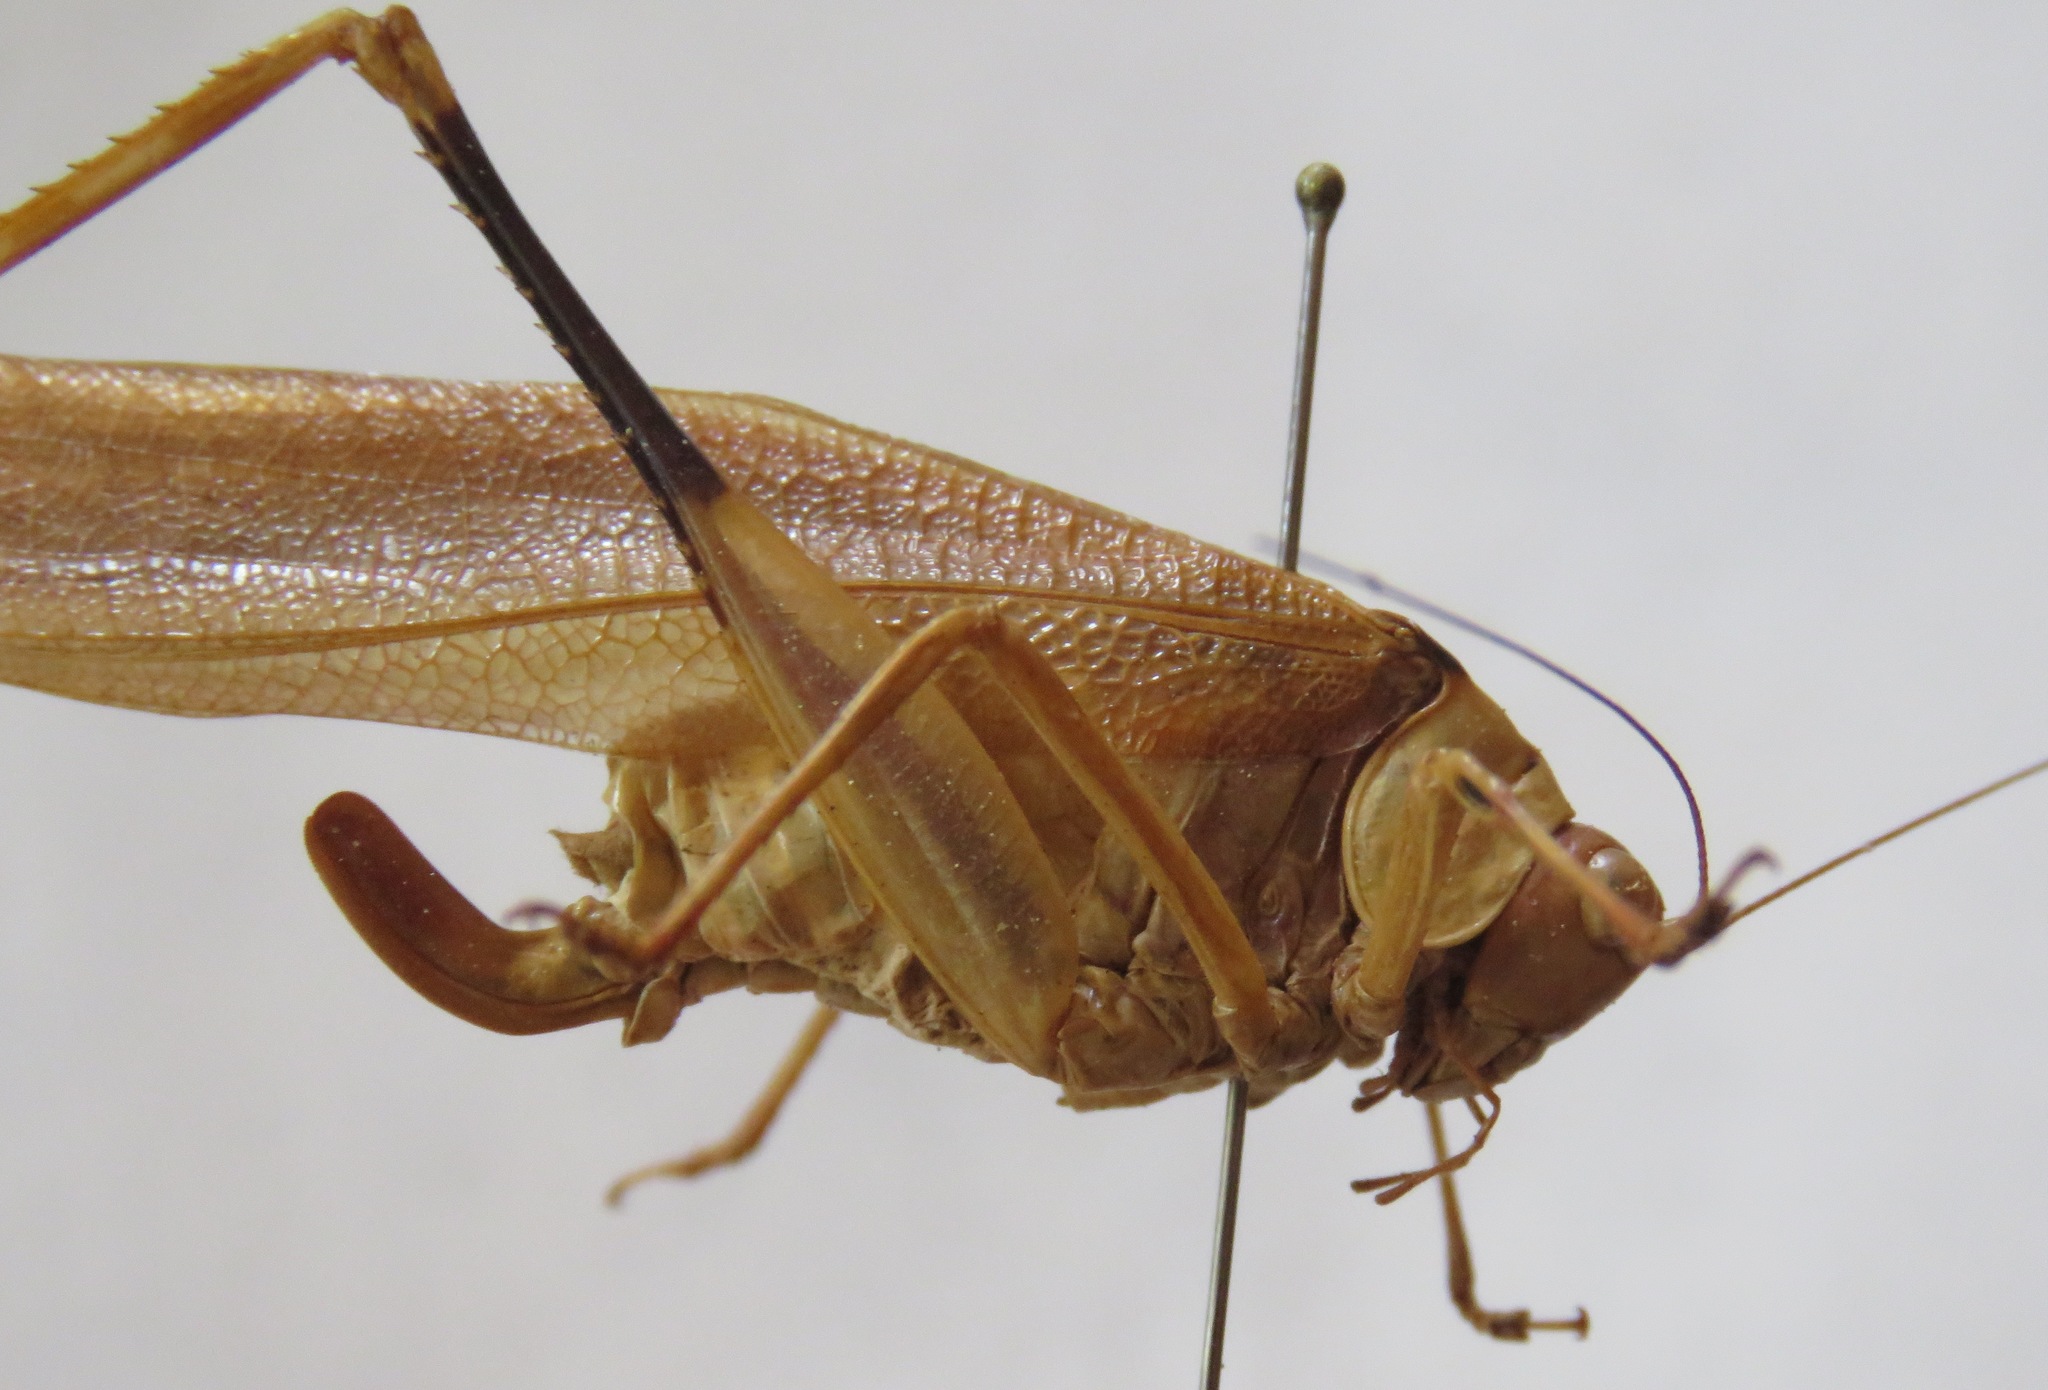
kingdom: Animalia
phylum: Arthropoda
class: Insecta
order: Orthoptera
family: Tettigoniidae
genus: Euceraia
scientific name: Euceraia insignis
